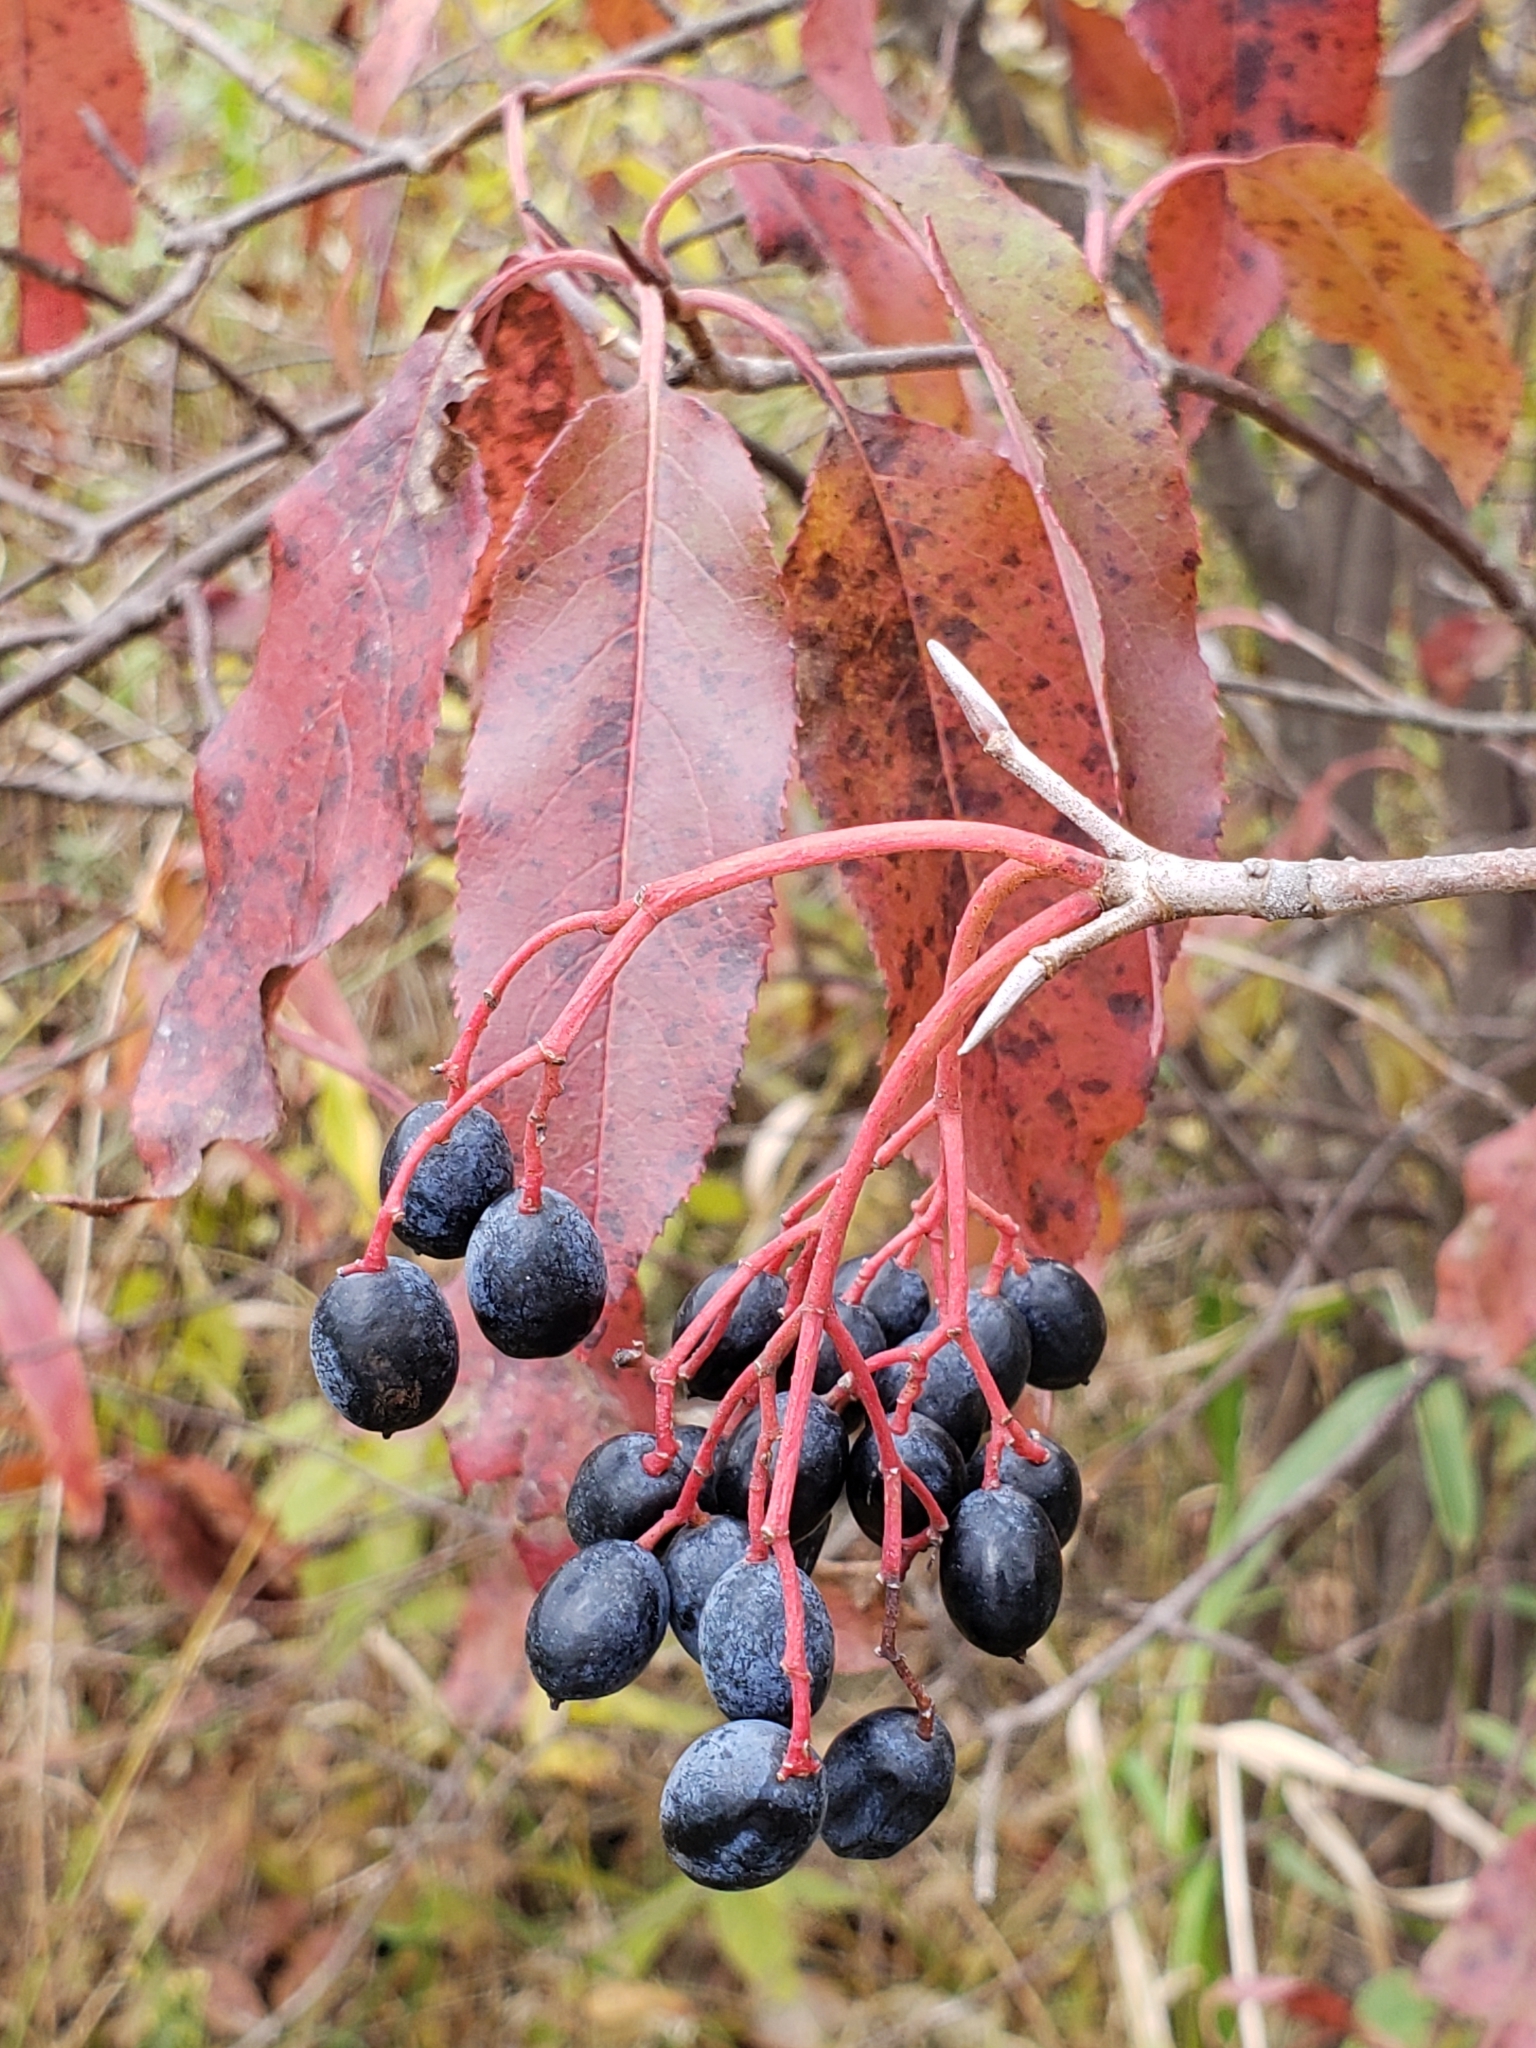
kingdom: Plantae
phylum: Tracheophyta
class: Magnoliopsida
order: Dipsacales
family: Viburnaceae
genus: Viburnum
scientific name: Viburnum lentago
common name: Black haw
